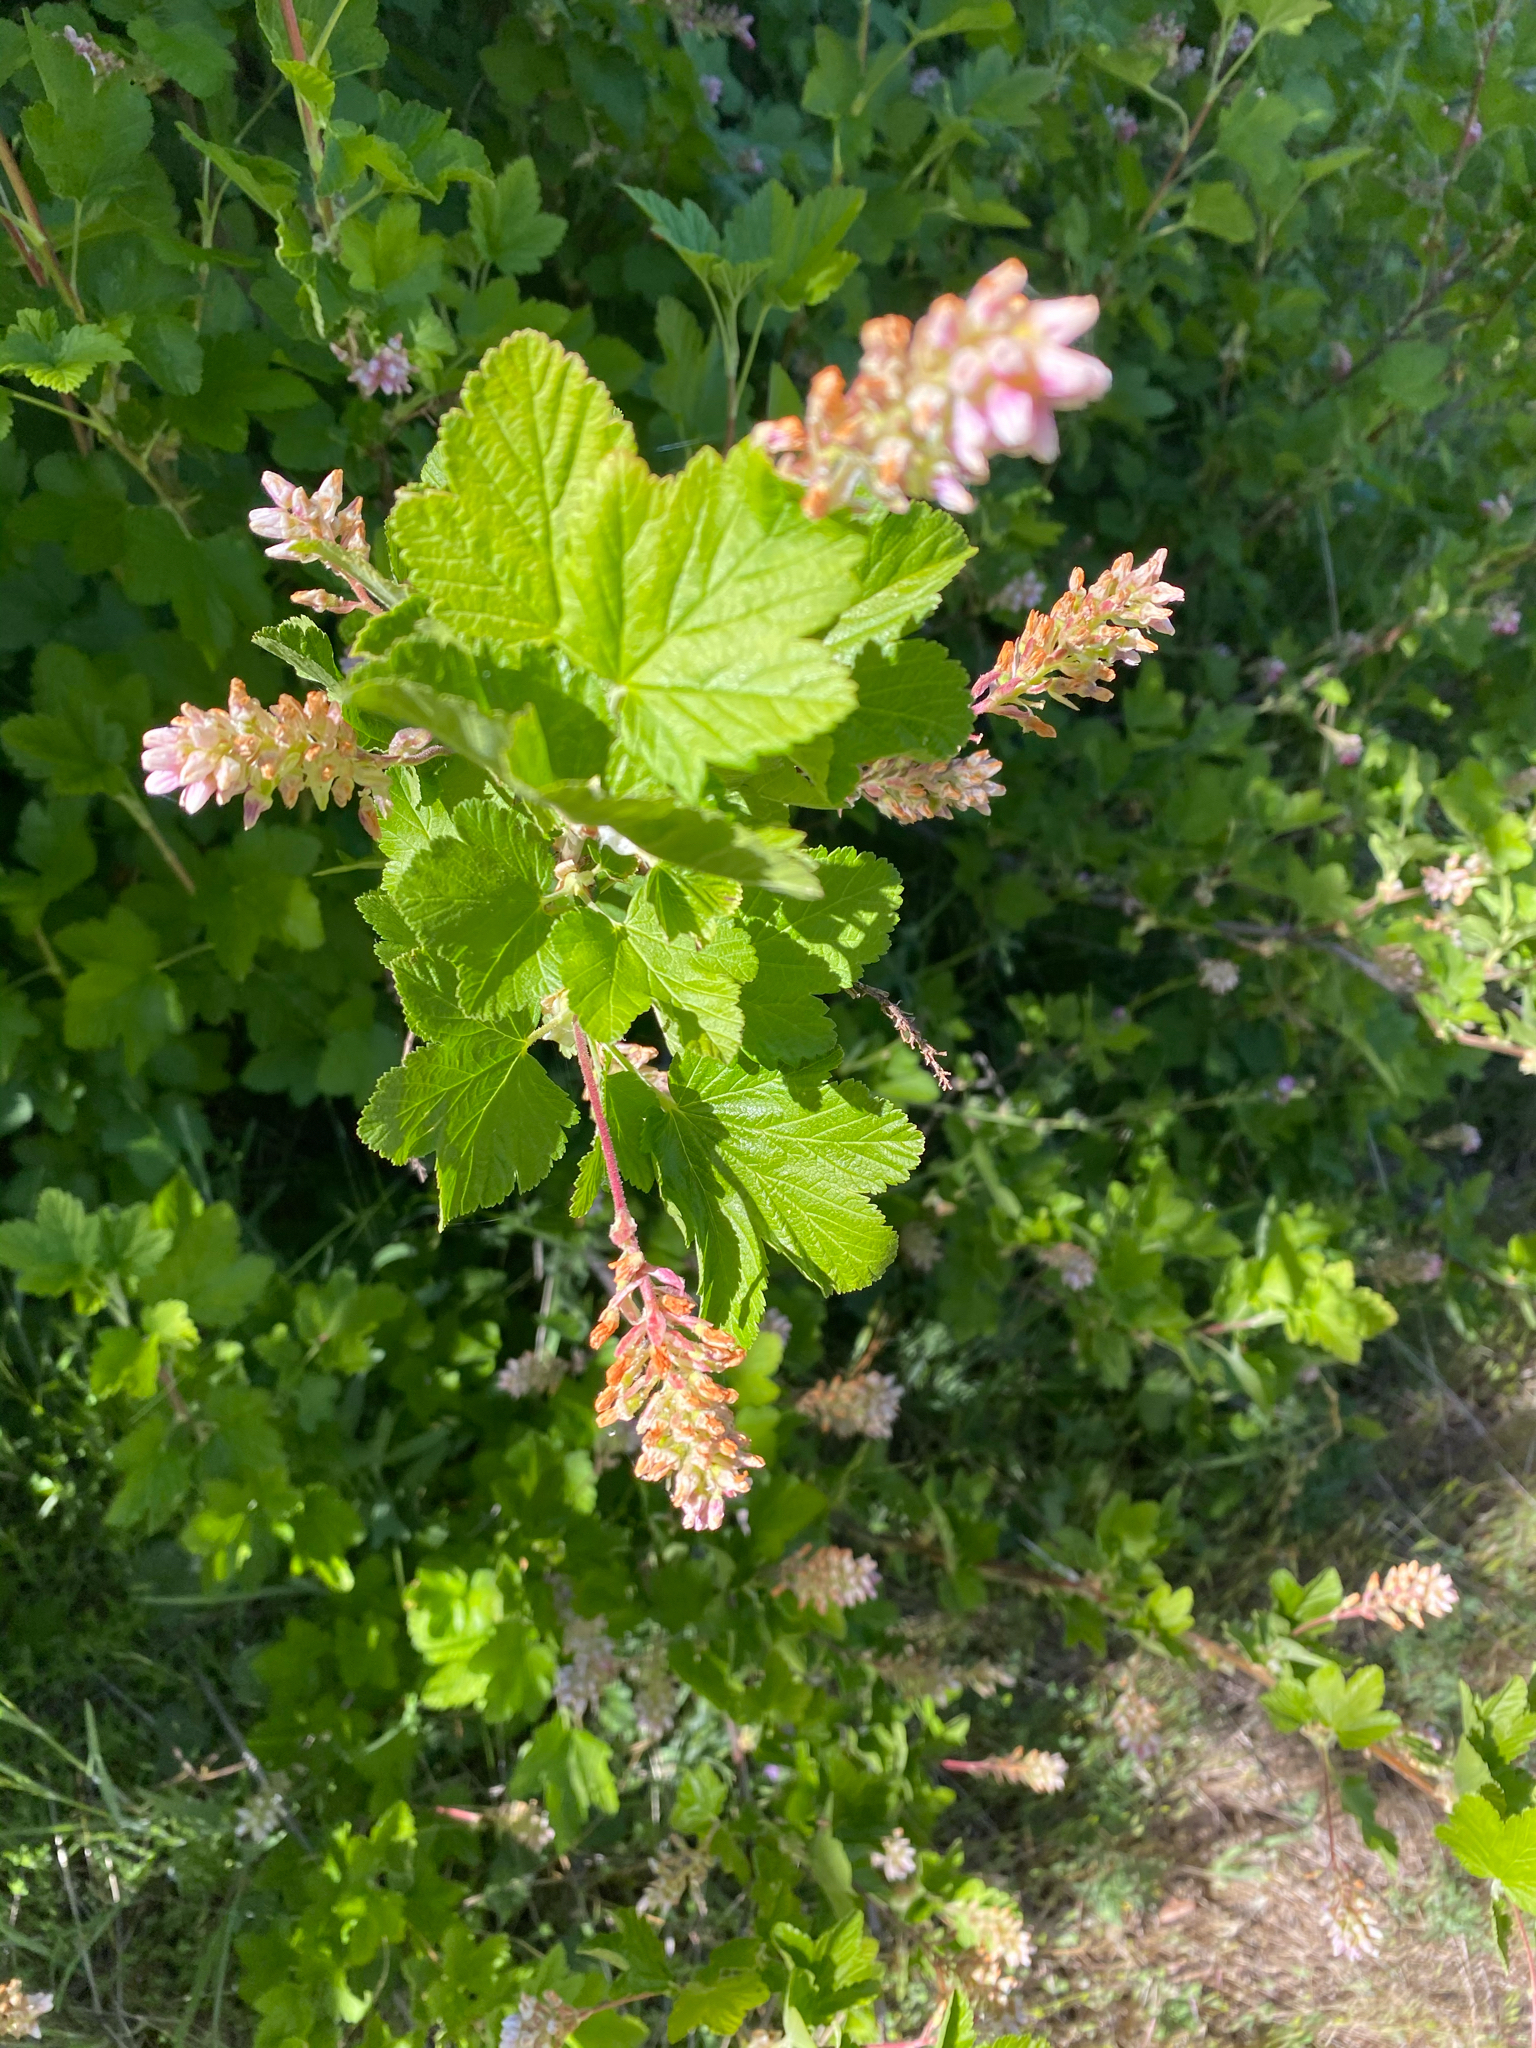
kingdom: Plantae
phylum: Tracheophyta
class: Magnoliopsida
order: Saxifragales
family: Grossulariaceae
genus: Ribes
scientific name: Ribes nevadense
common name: Mountain pink currant
